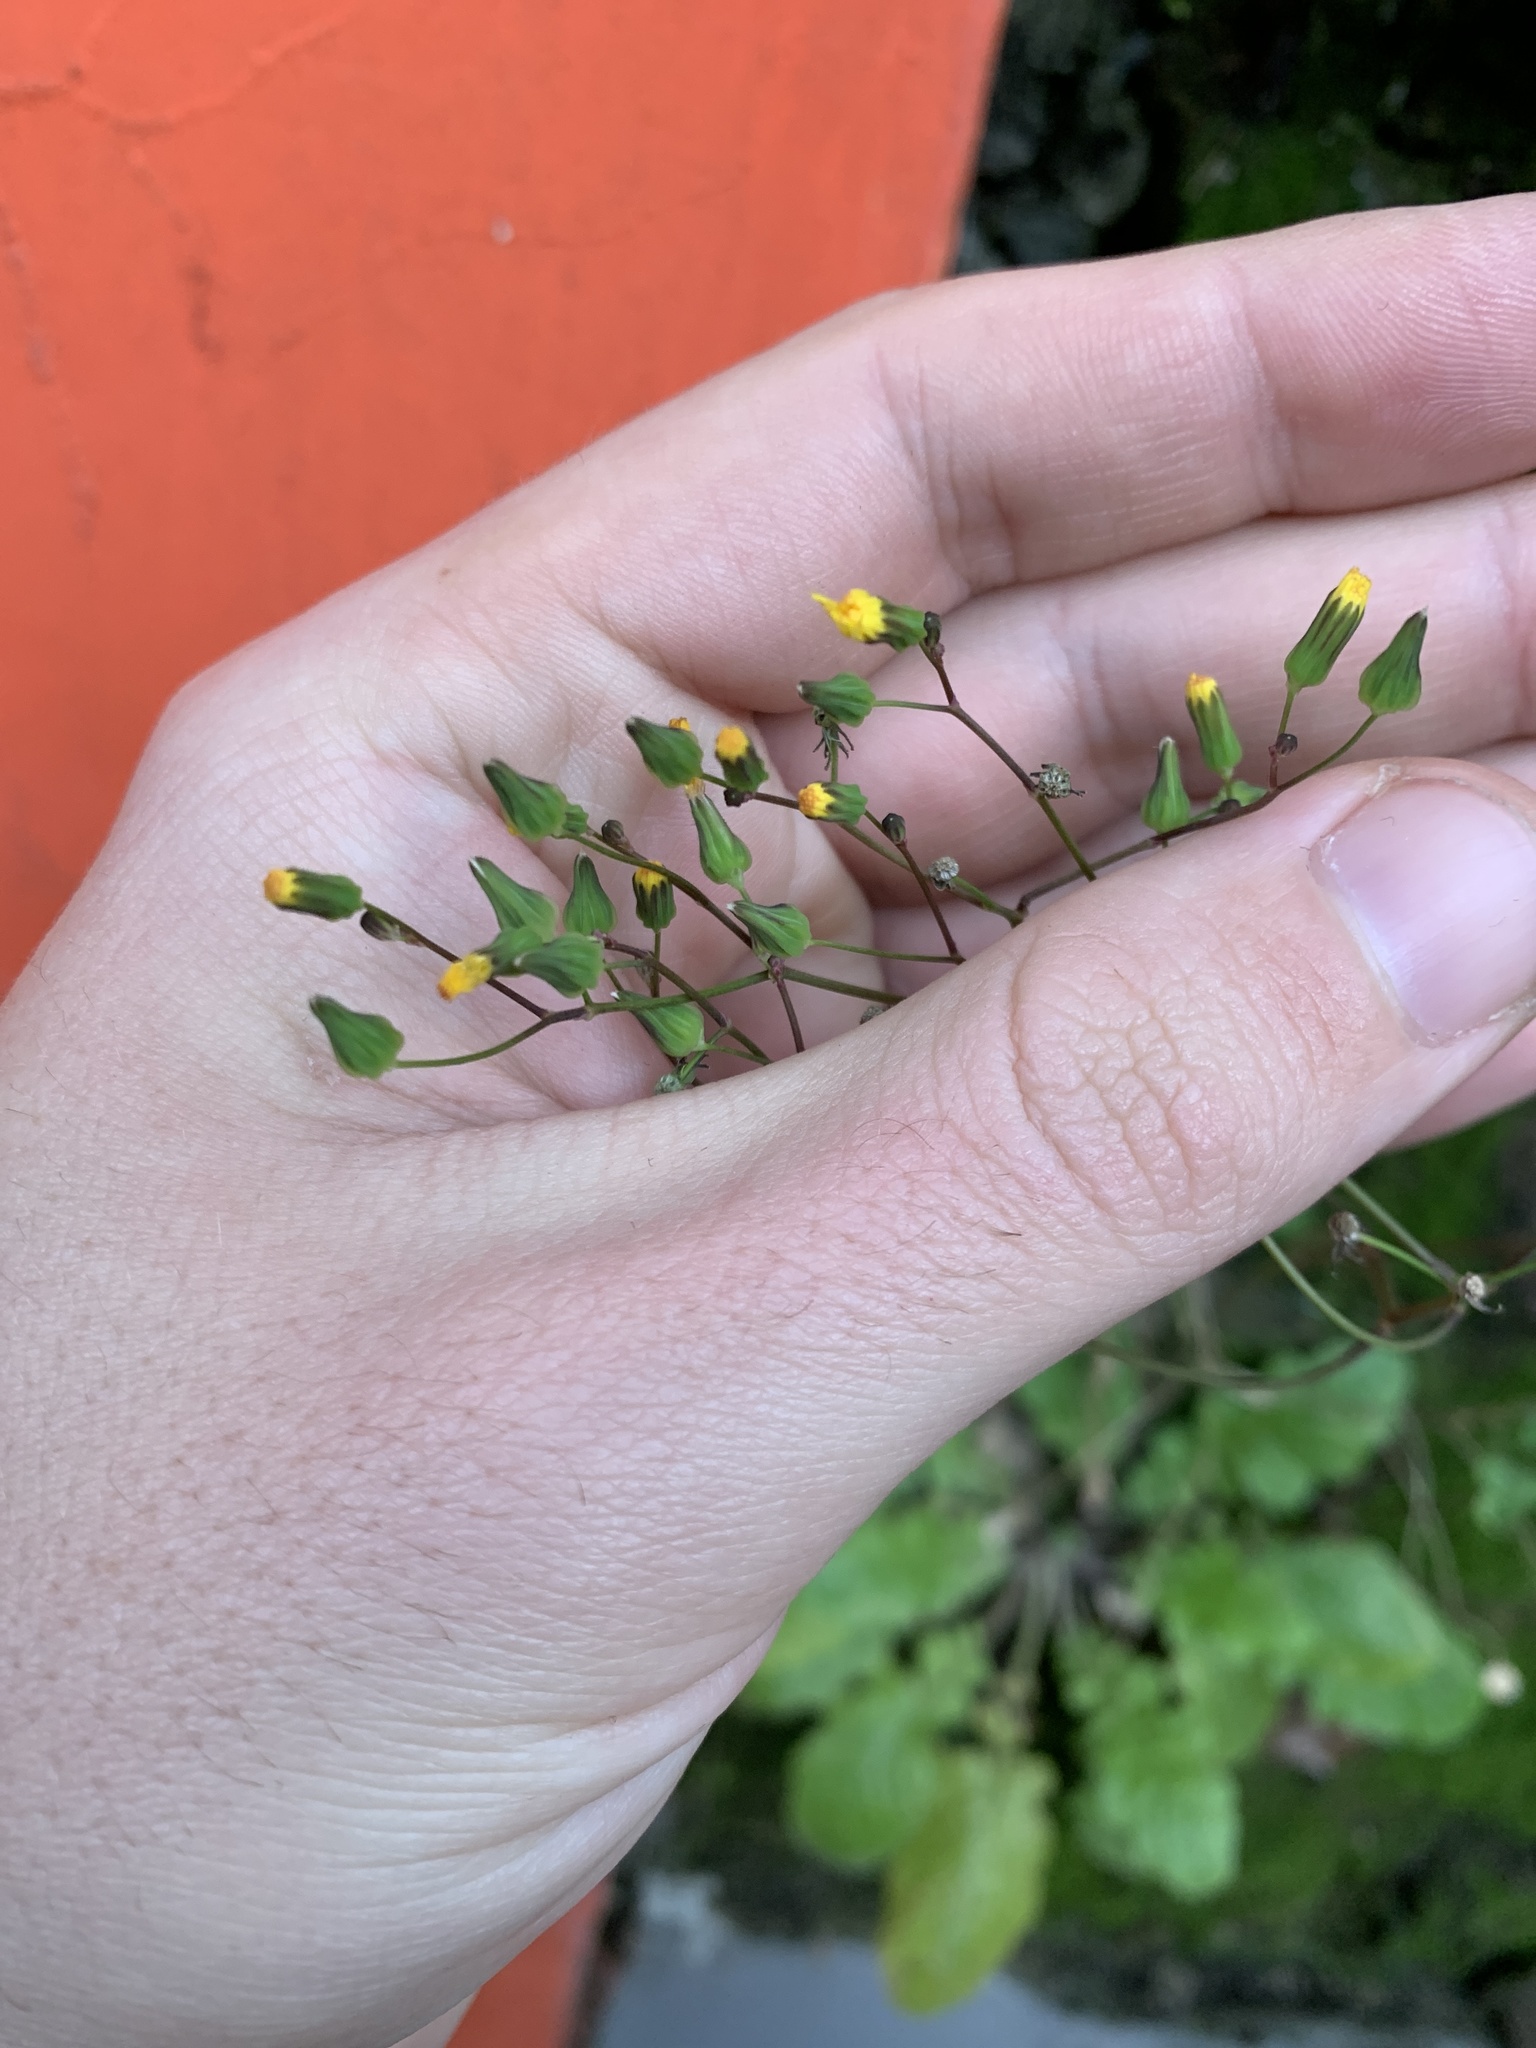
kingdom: Plantae
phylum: Tracheophyta
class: Magnoliopsida
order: Asterales
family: Asteraceae
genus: Youngia
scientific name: Youngia japonica
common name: Oriental false hawksbeard
